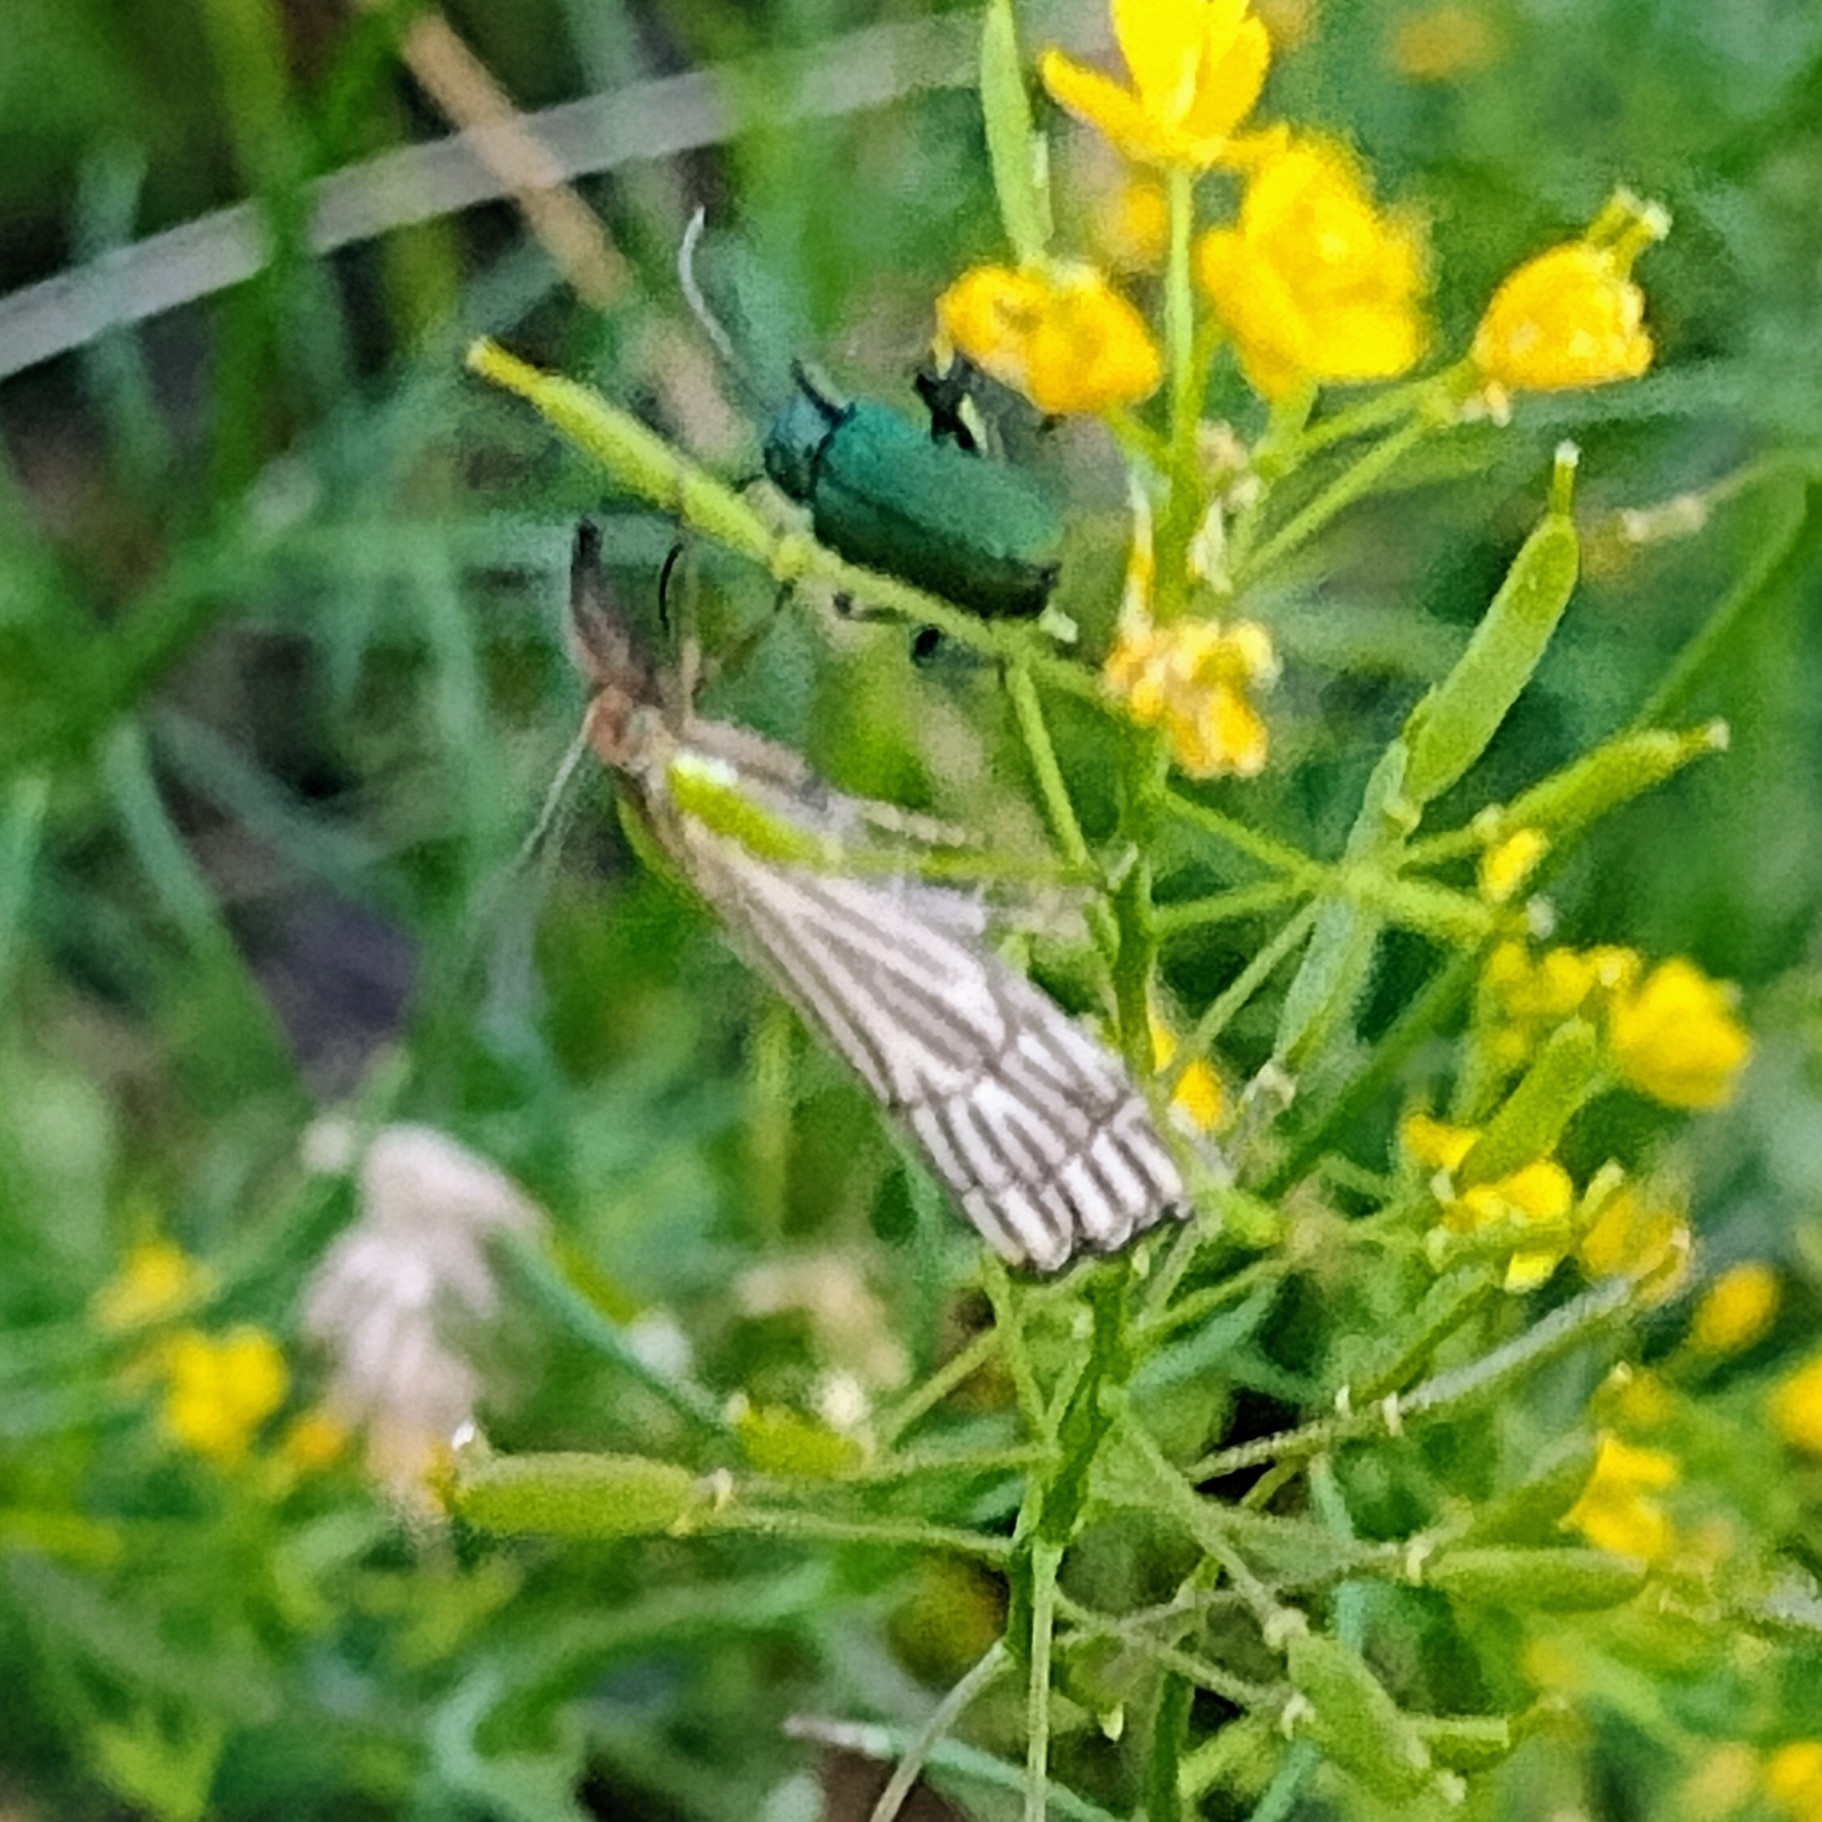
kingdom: Animalia
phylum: Arthropoda
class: Insecta
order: Lepidoptera
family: Crambidae
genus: Chrysocrambus
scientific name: Chrysocrambus linetella
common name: Orange-bar grass-veneer
